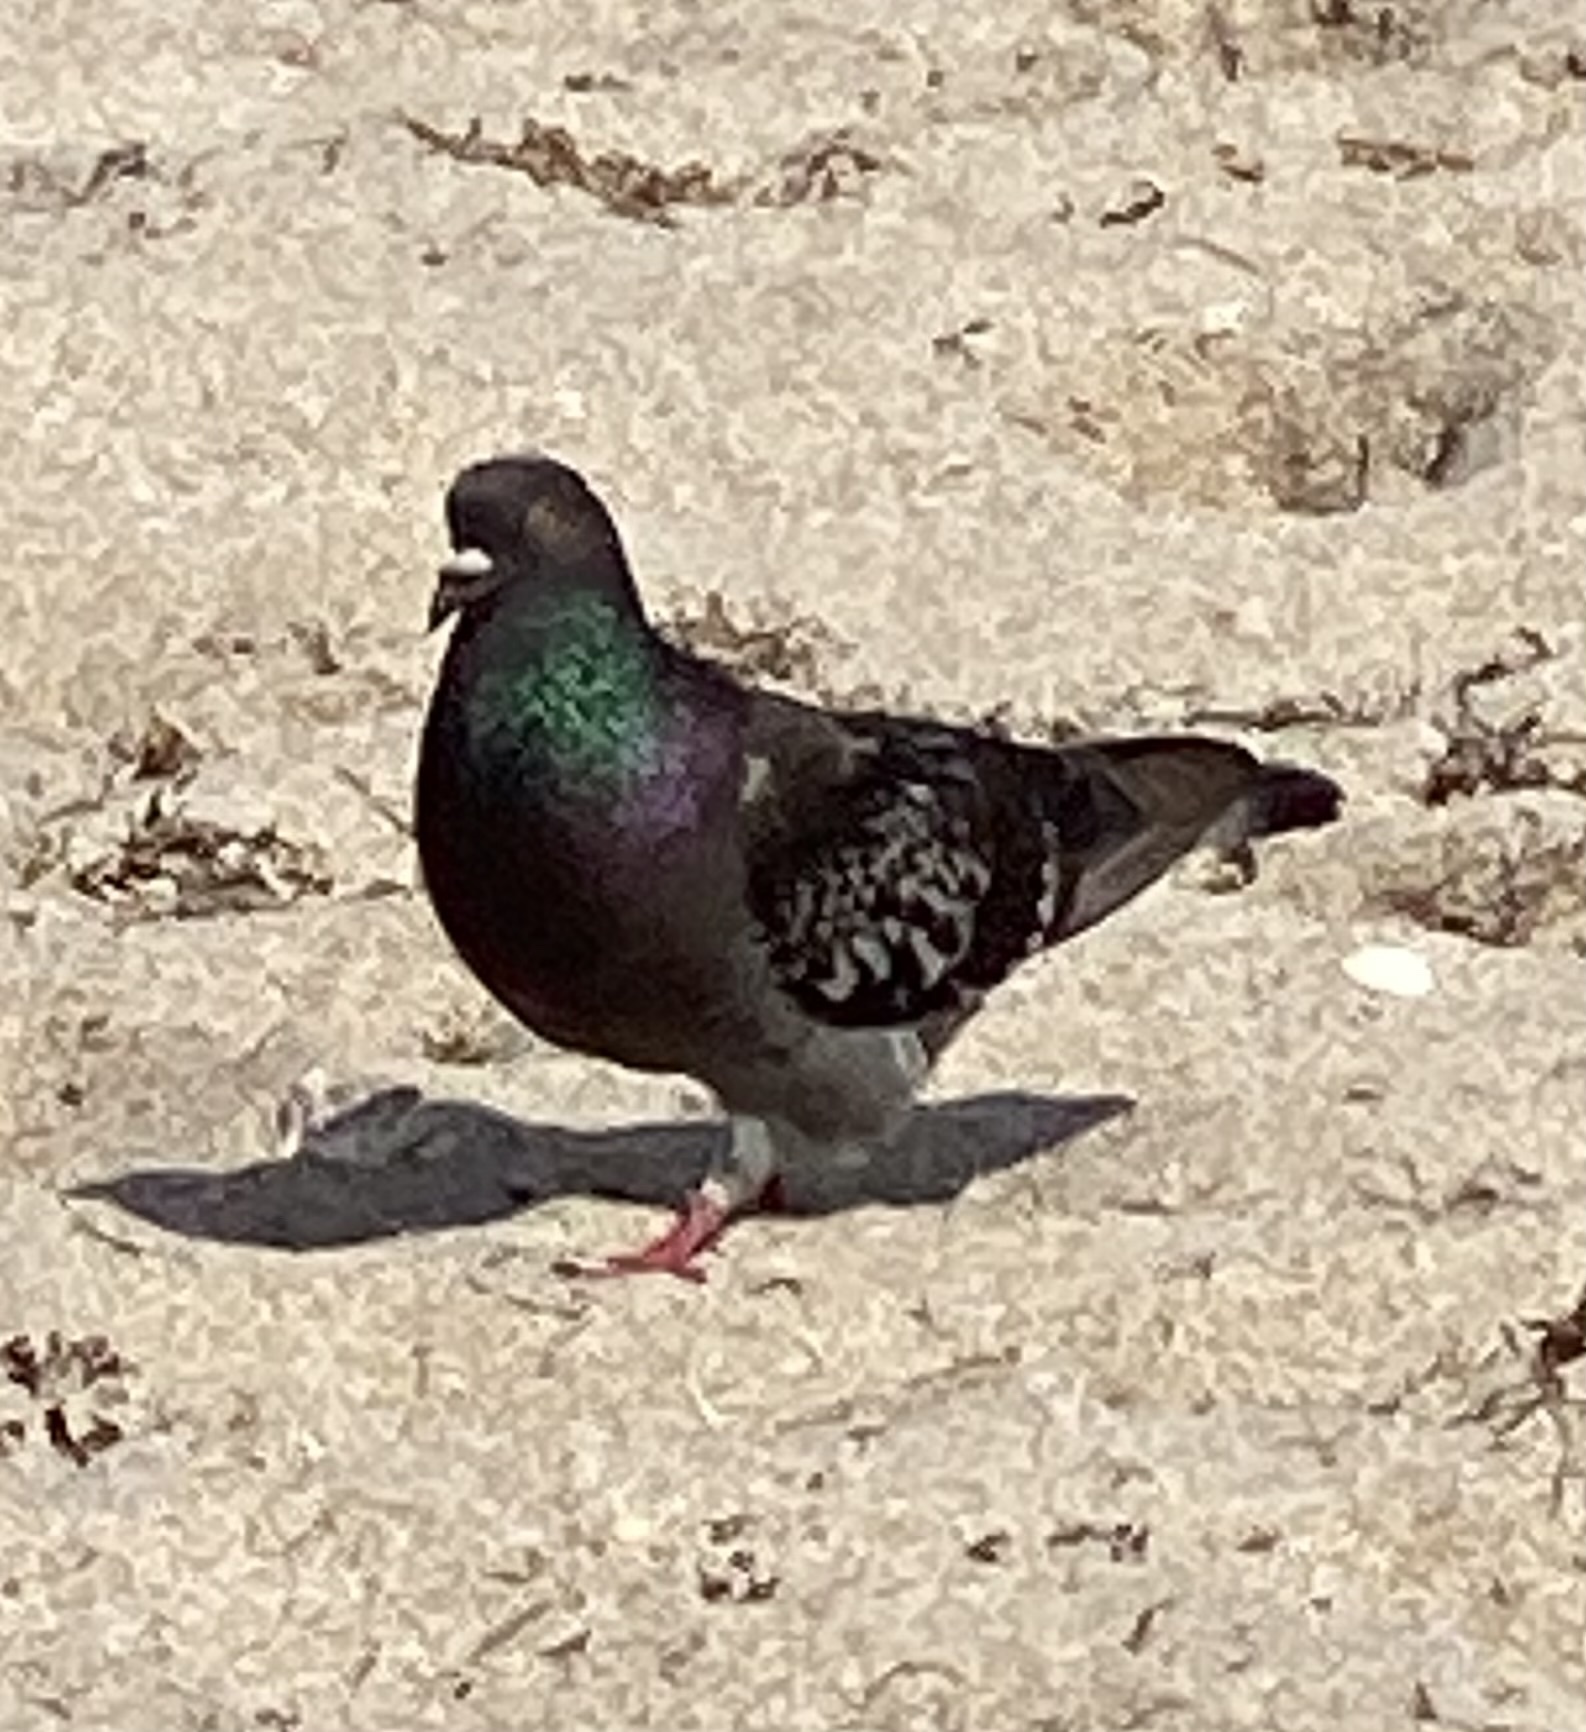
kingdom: Animalia
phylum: Chordata
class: Aves
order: Columbiformes
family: Columbidae
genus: Columba
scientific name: Columba livia
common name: Rock pigeon
